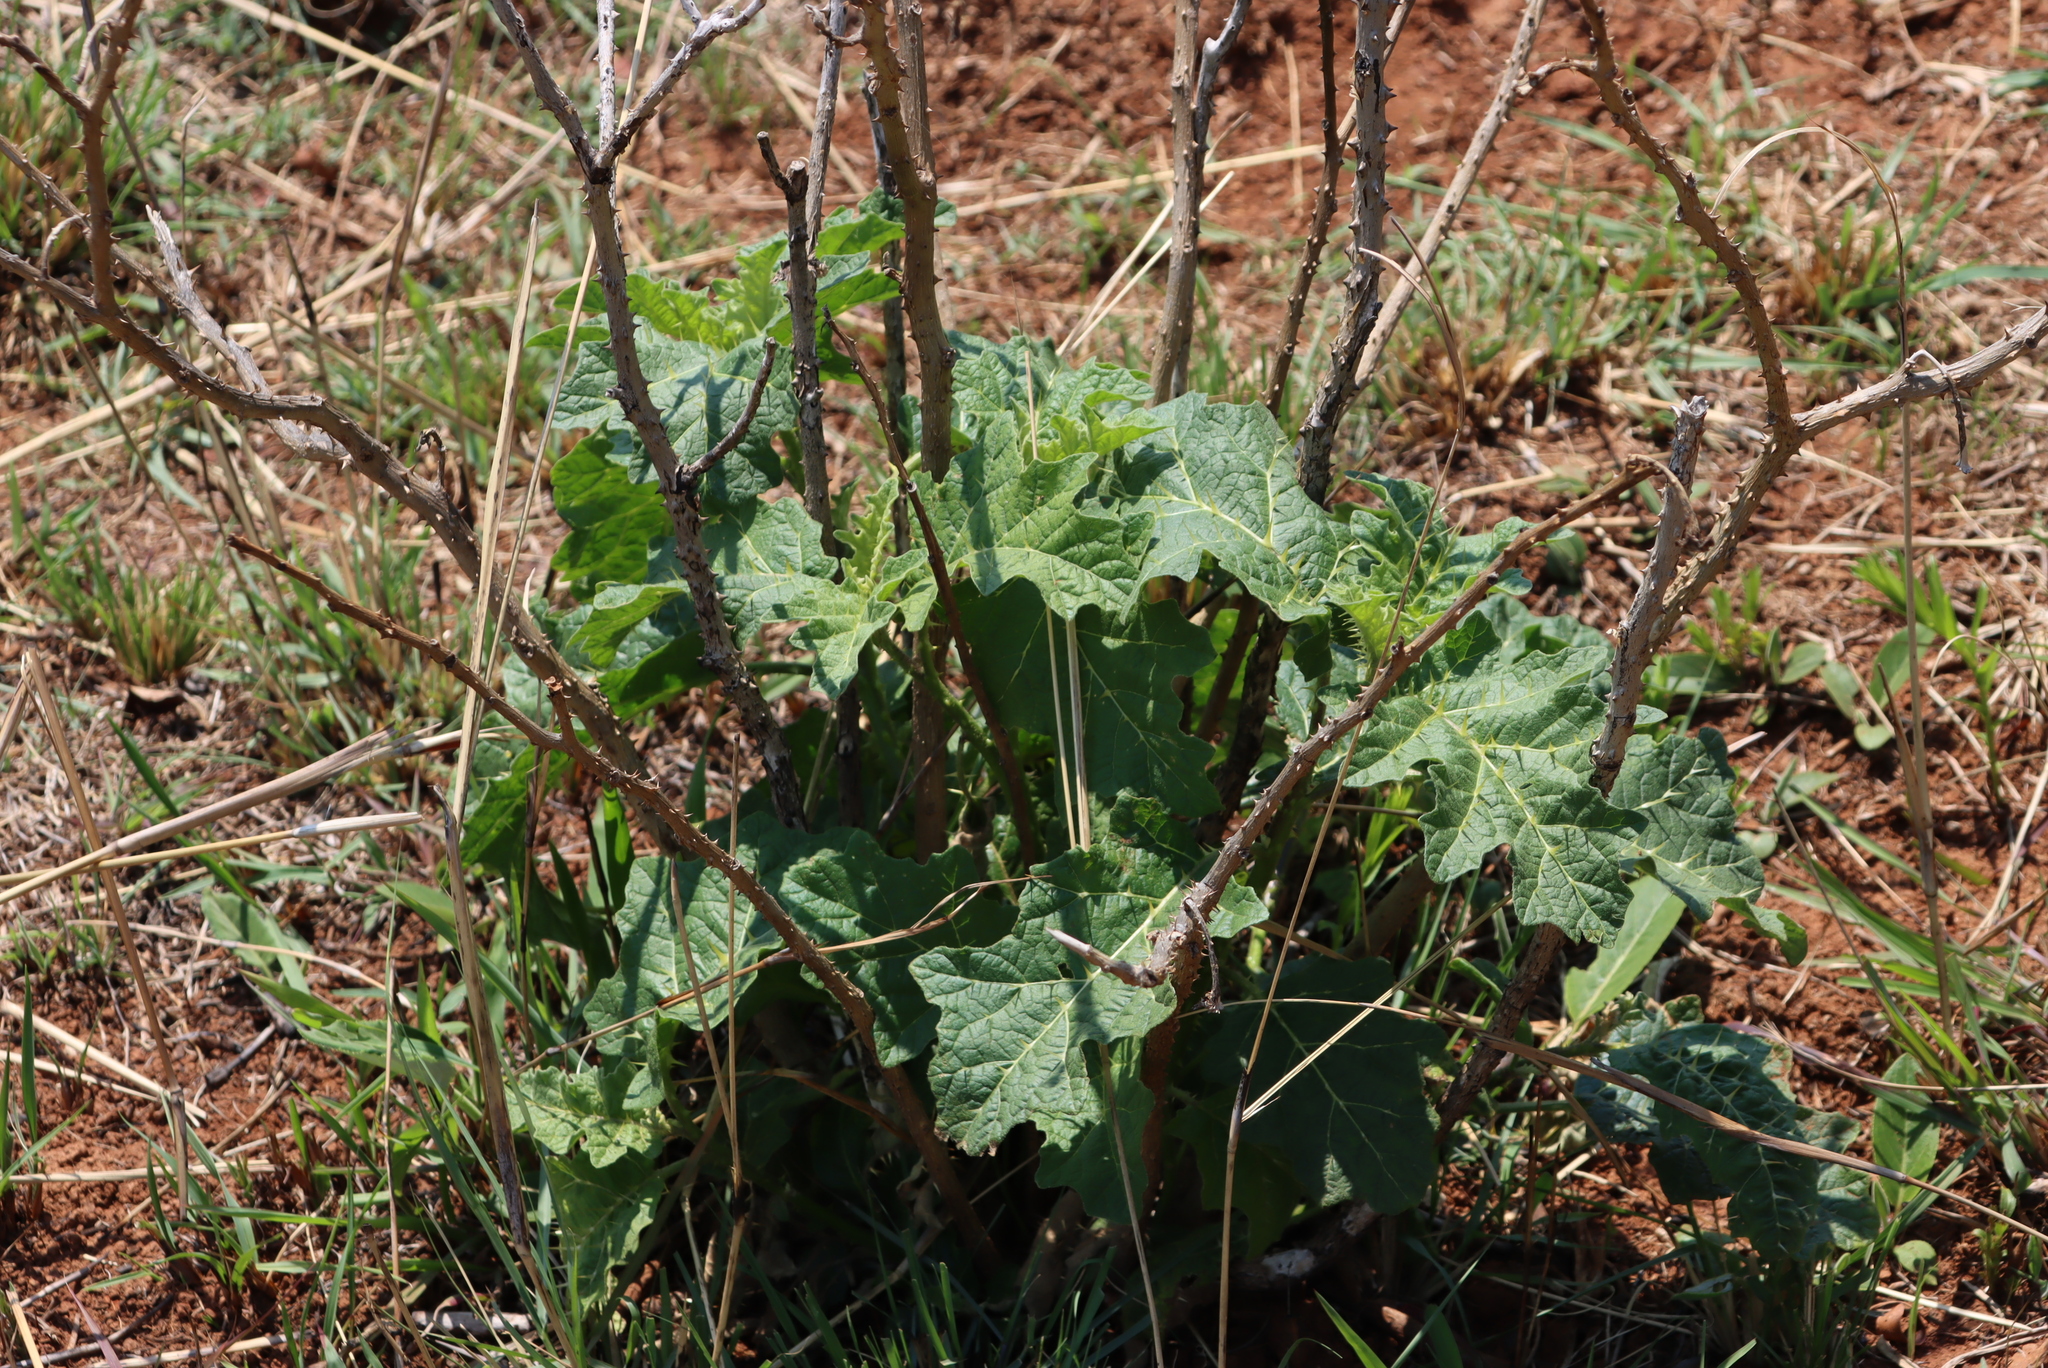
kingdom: Plantae
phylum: Tracheophyta
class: Magnoliopsida
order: Solanales
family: Solanaceae
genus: Solanum
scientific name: Solanum umtuma
